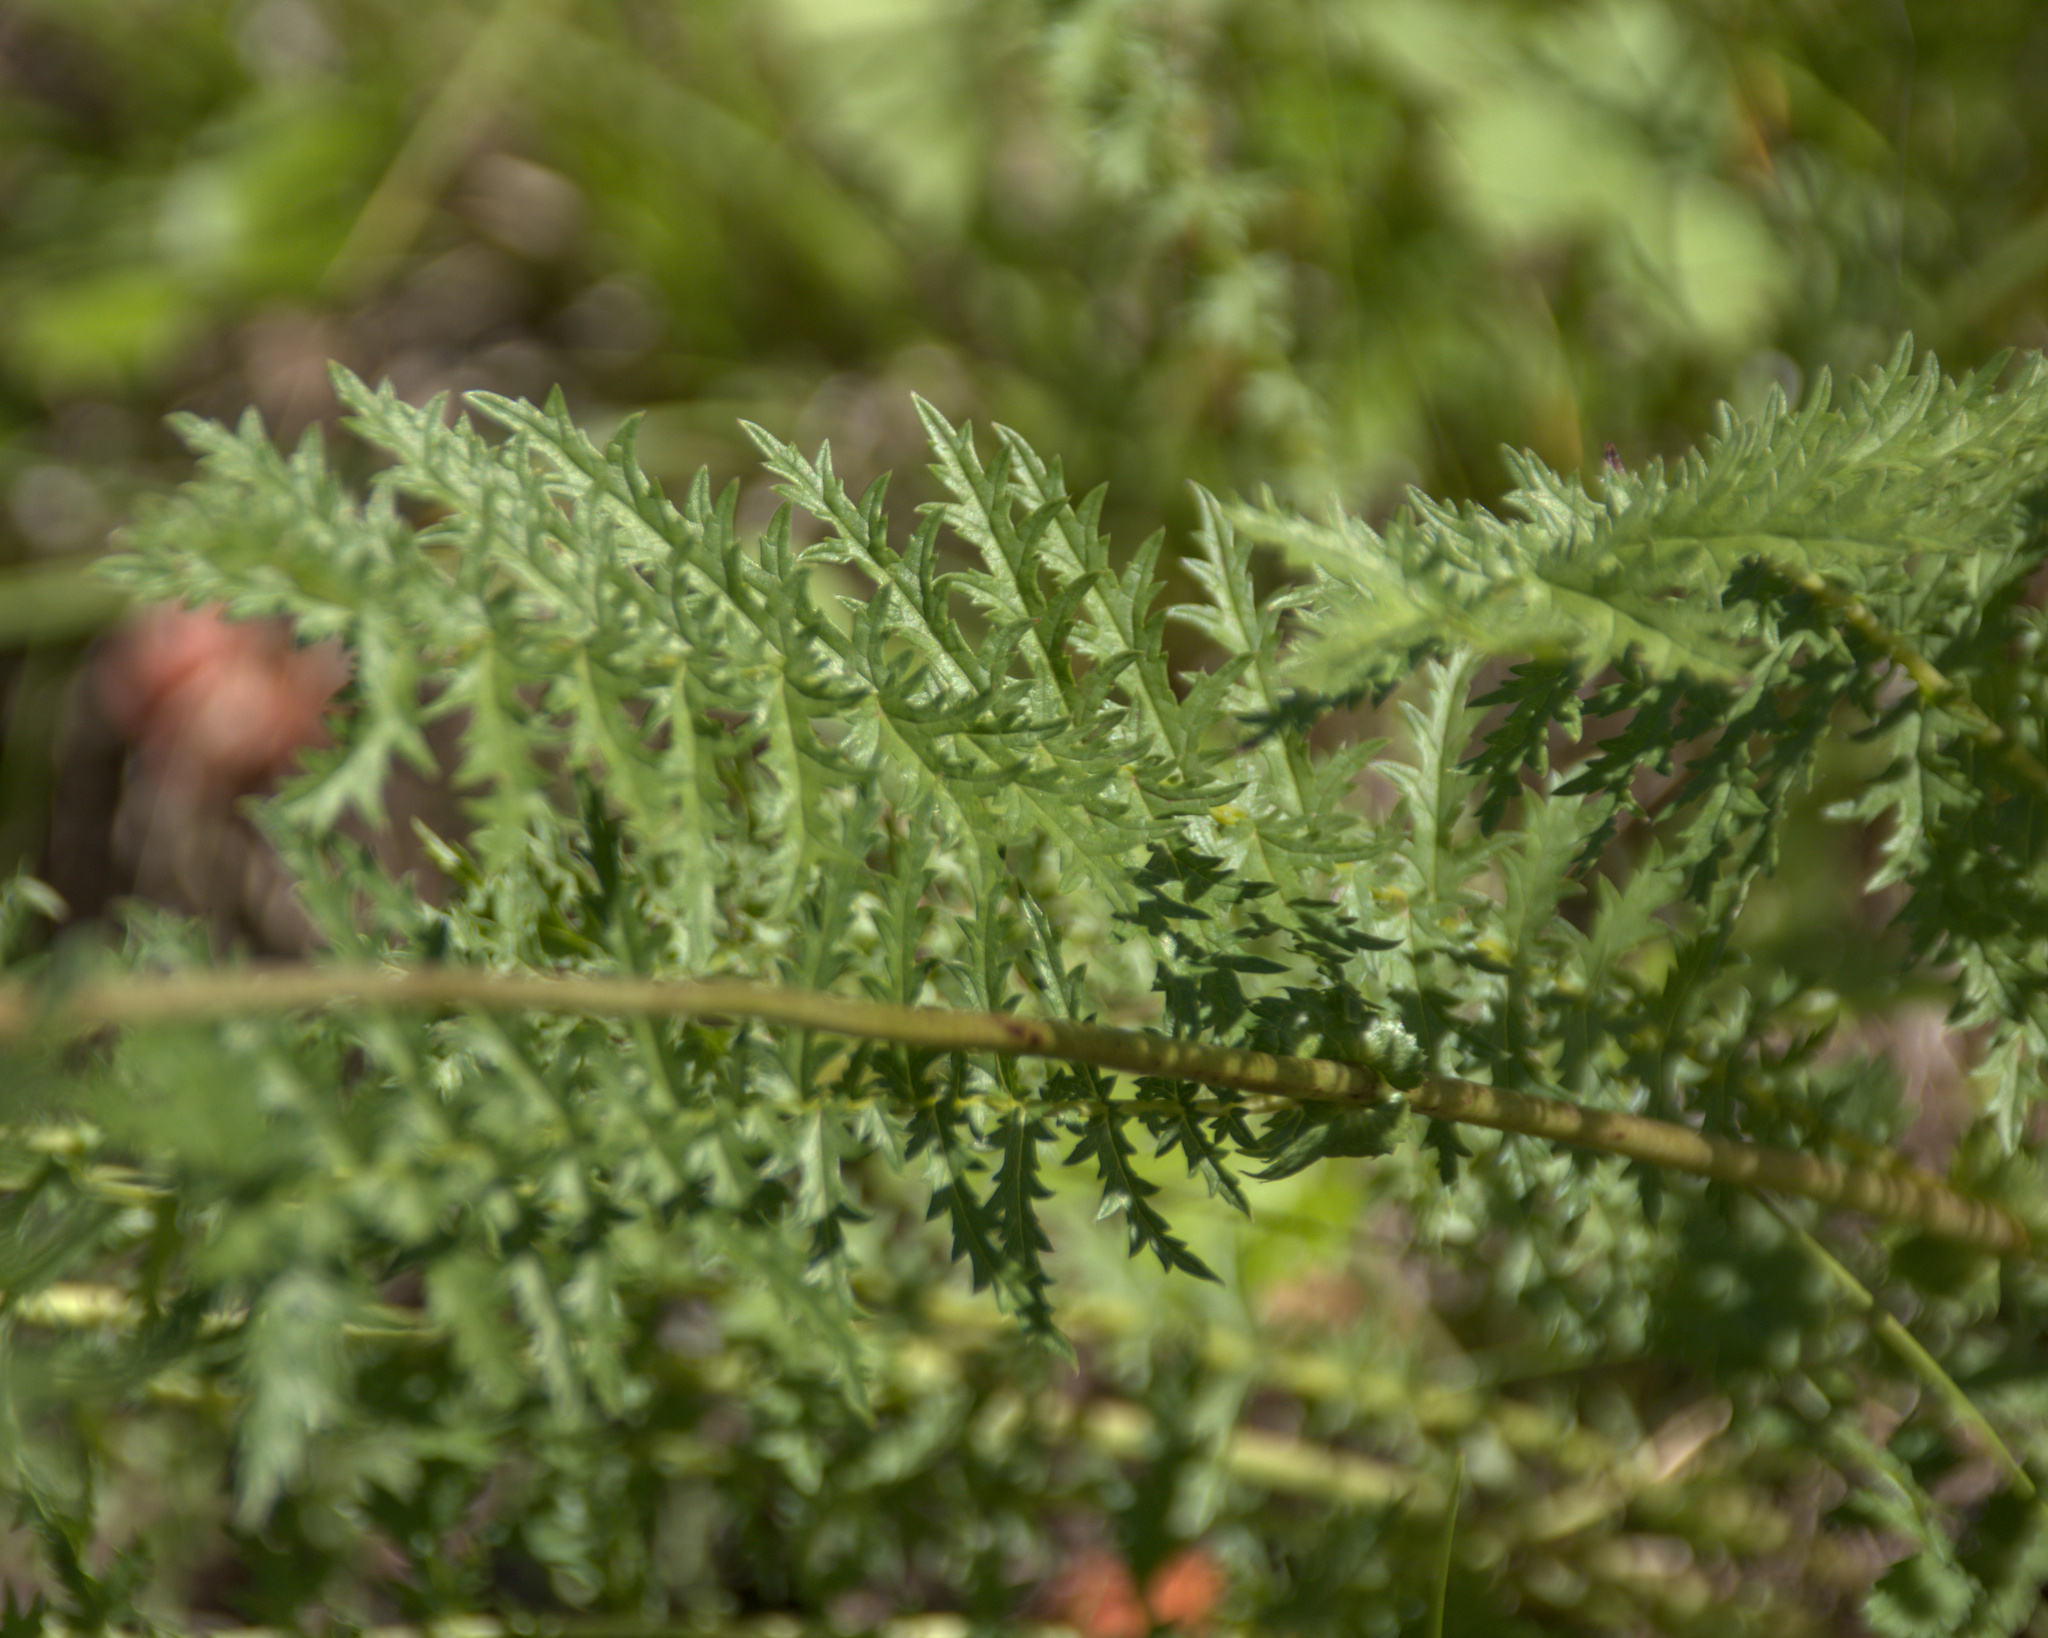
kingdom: Plantae
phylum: Tracheophyta
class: Magnoliopsida
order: Rosales
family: Rosaceae
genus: Filipendula
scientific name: Filipendula vulgaris
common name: Dropwort
